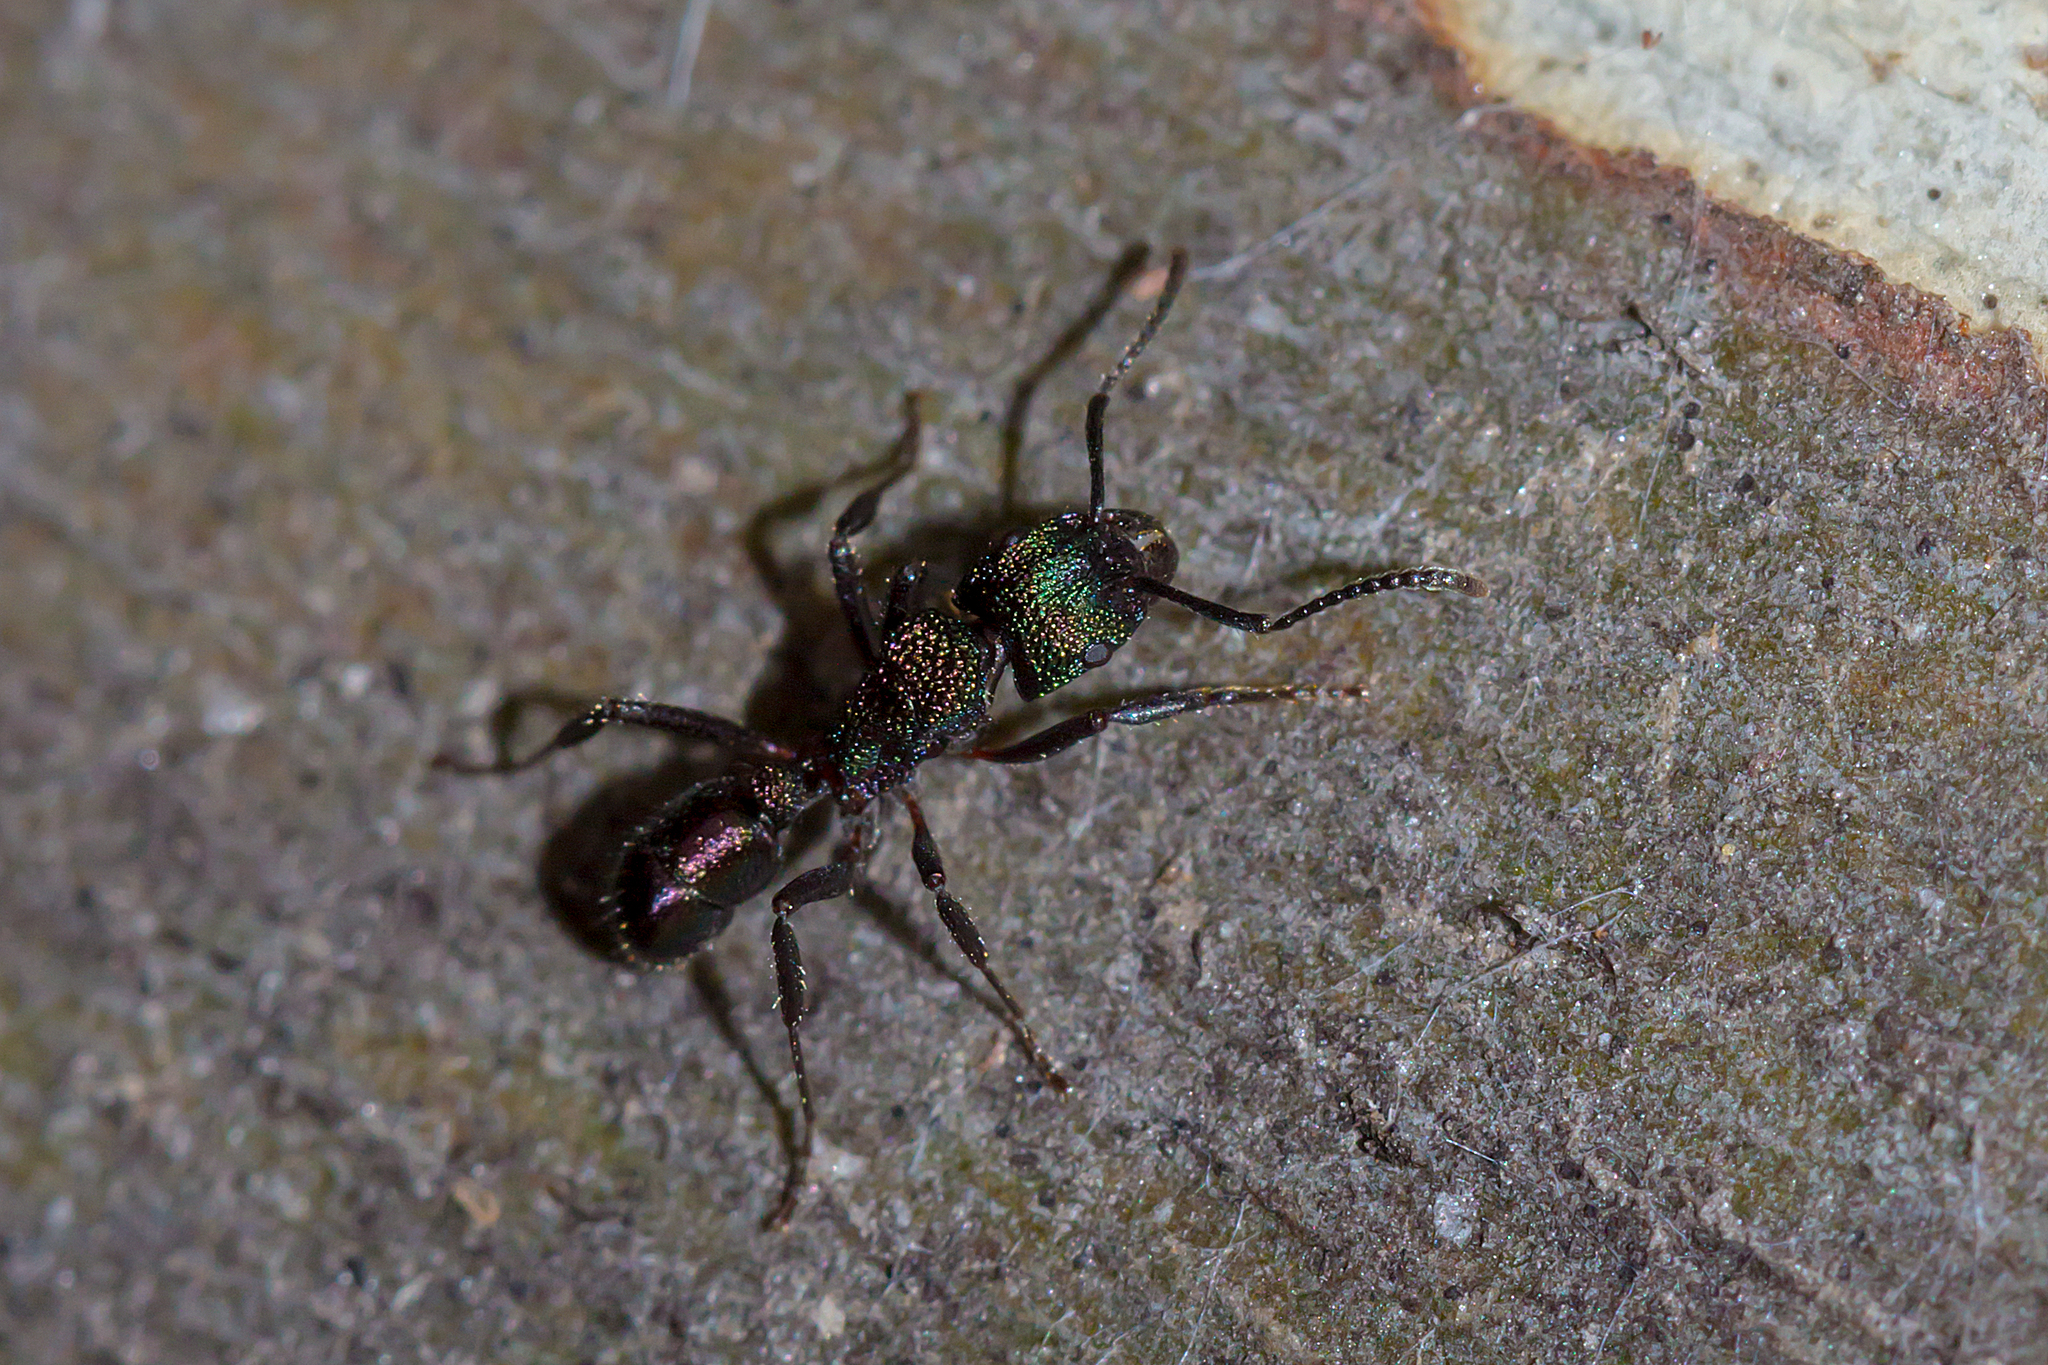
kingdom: Animalia
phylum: Arthropoda
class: Insecta
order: Hymenoptera
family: Formicidae
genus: Rhytidoponera
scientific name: Rhytidoponera metallica
